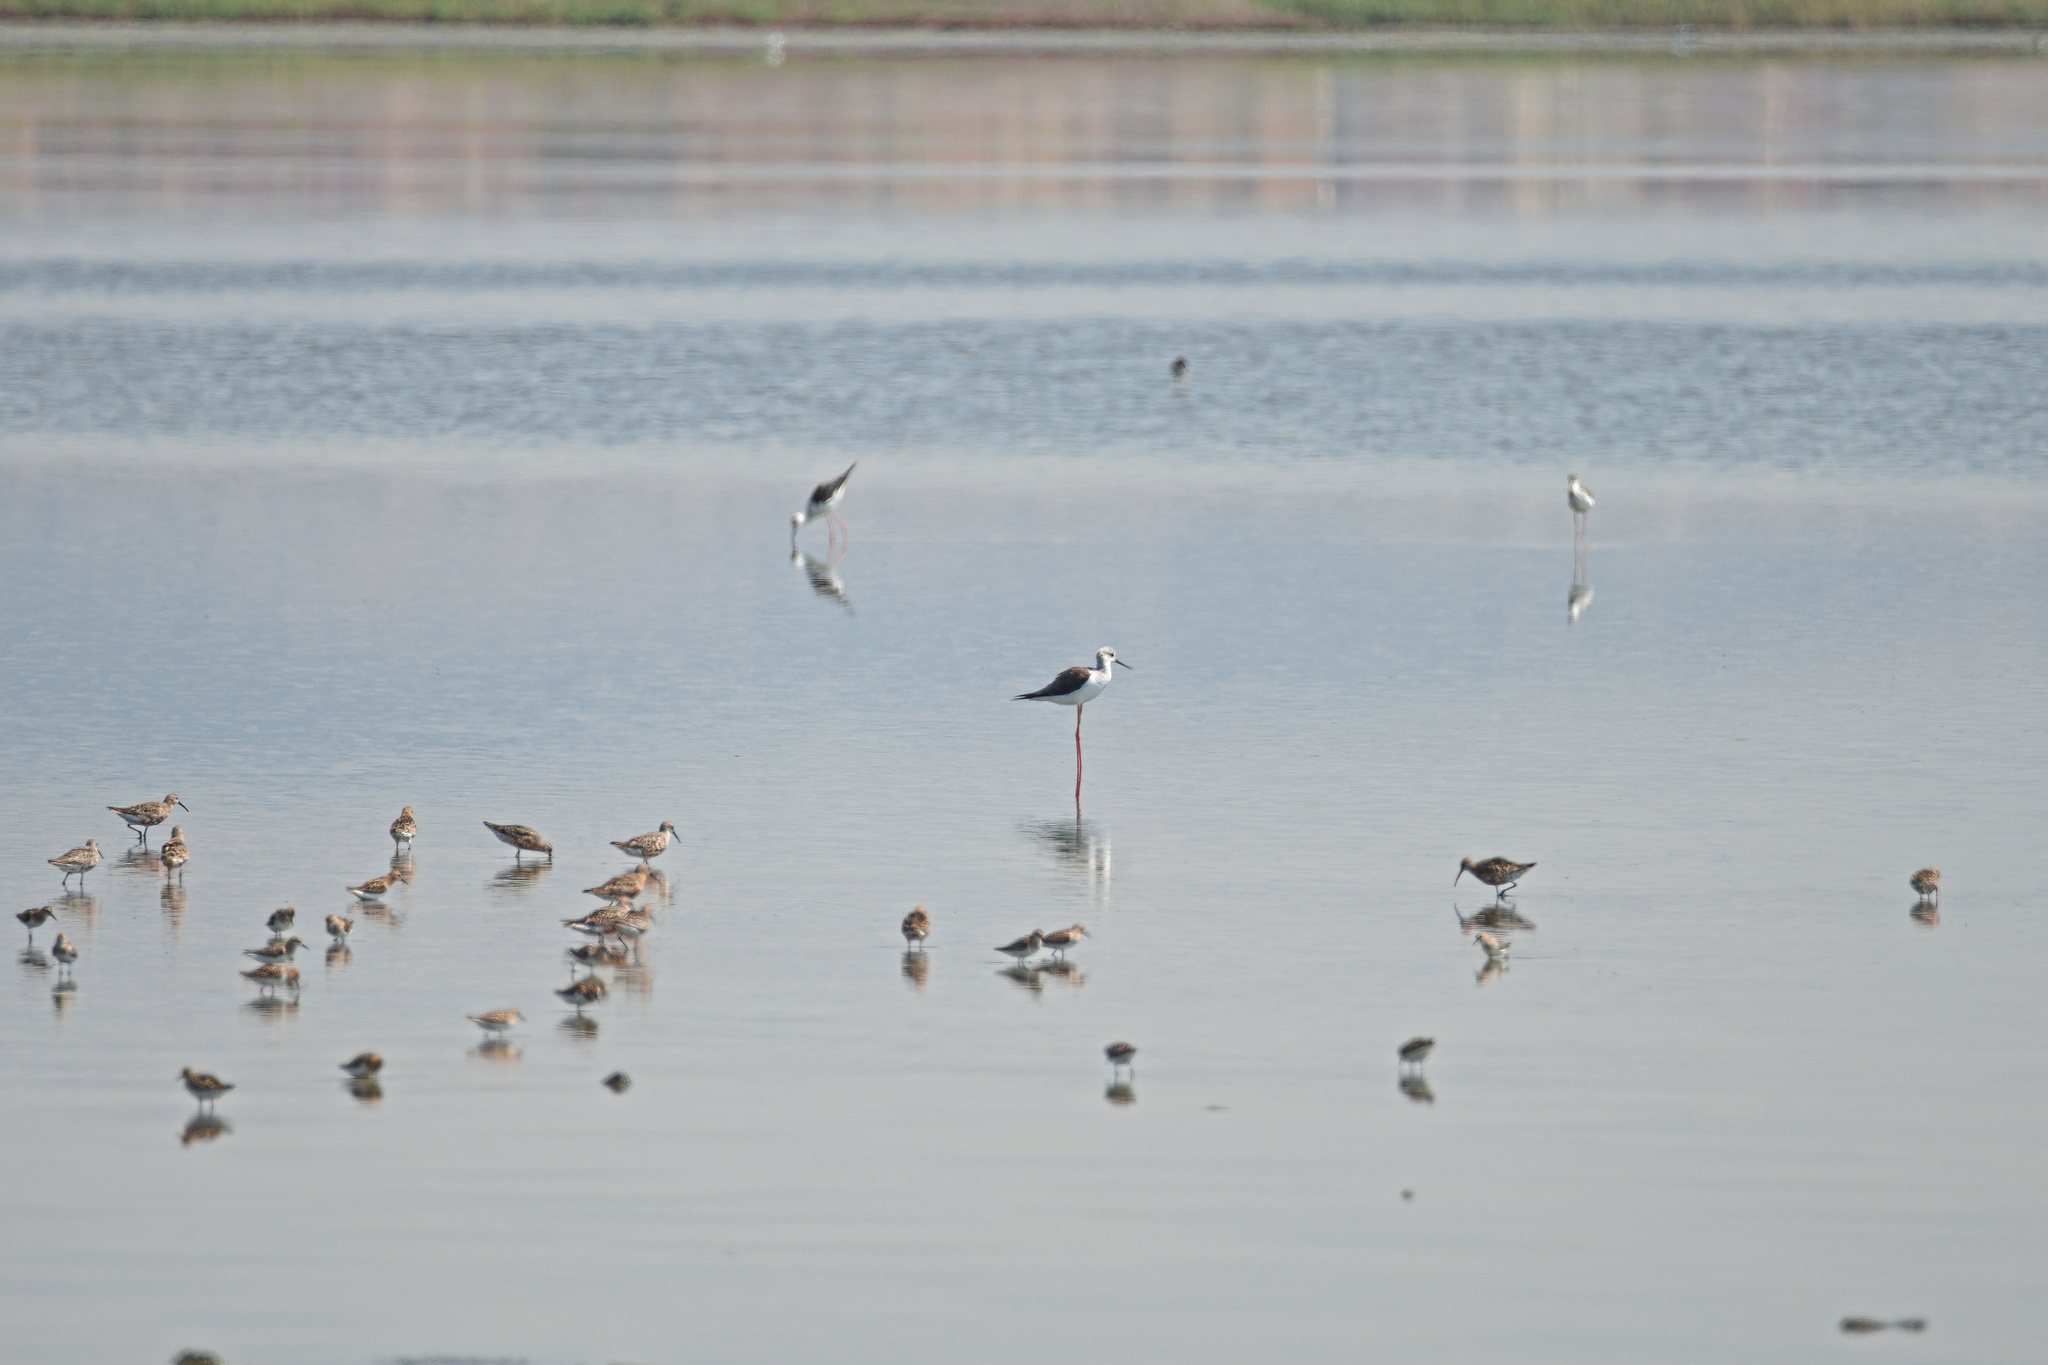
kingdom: Animalia
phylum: Chordata
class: Aves
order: Charadriiformes
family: Recurvirostridae
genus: Himantopus
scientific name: Himantopus himantopus
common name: Black-winged stilt
